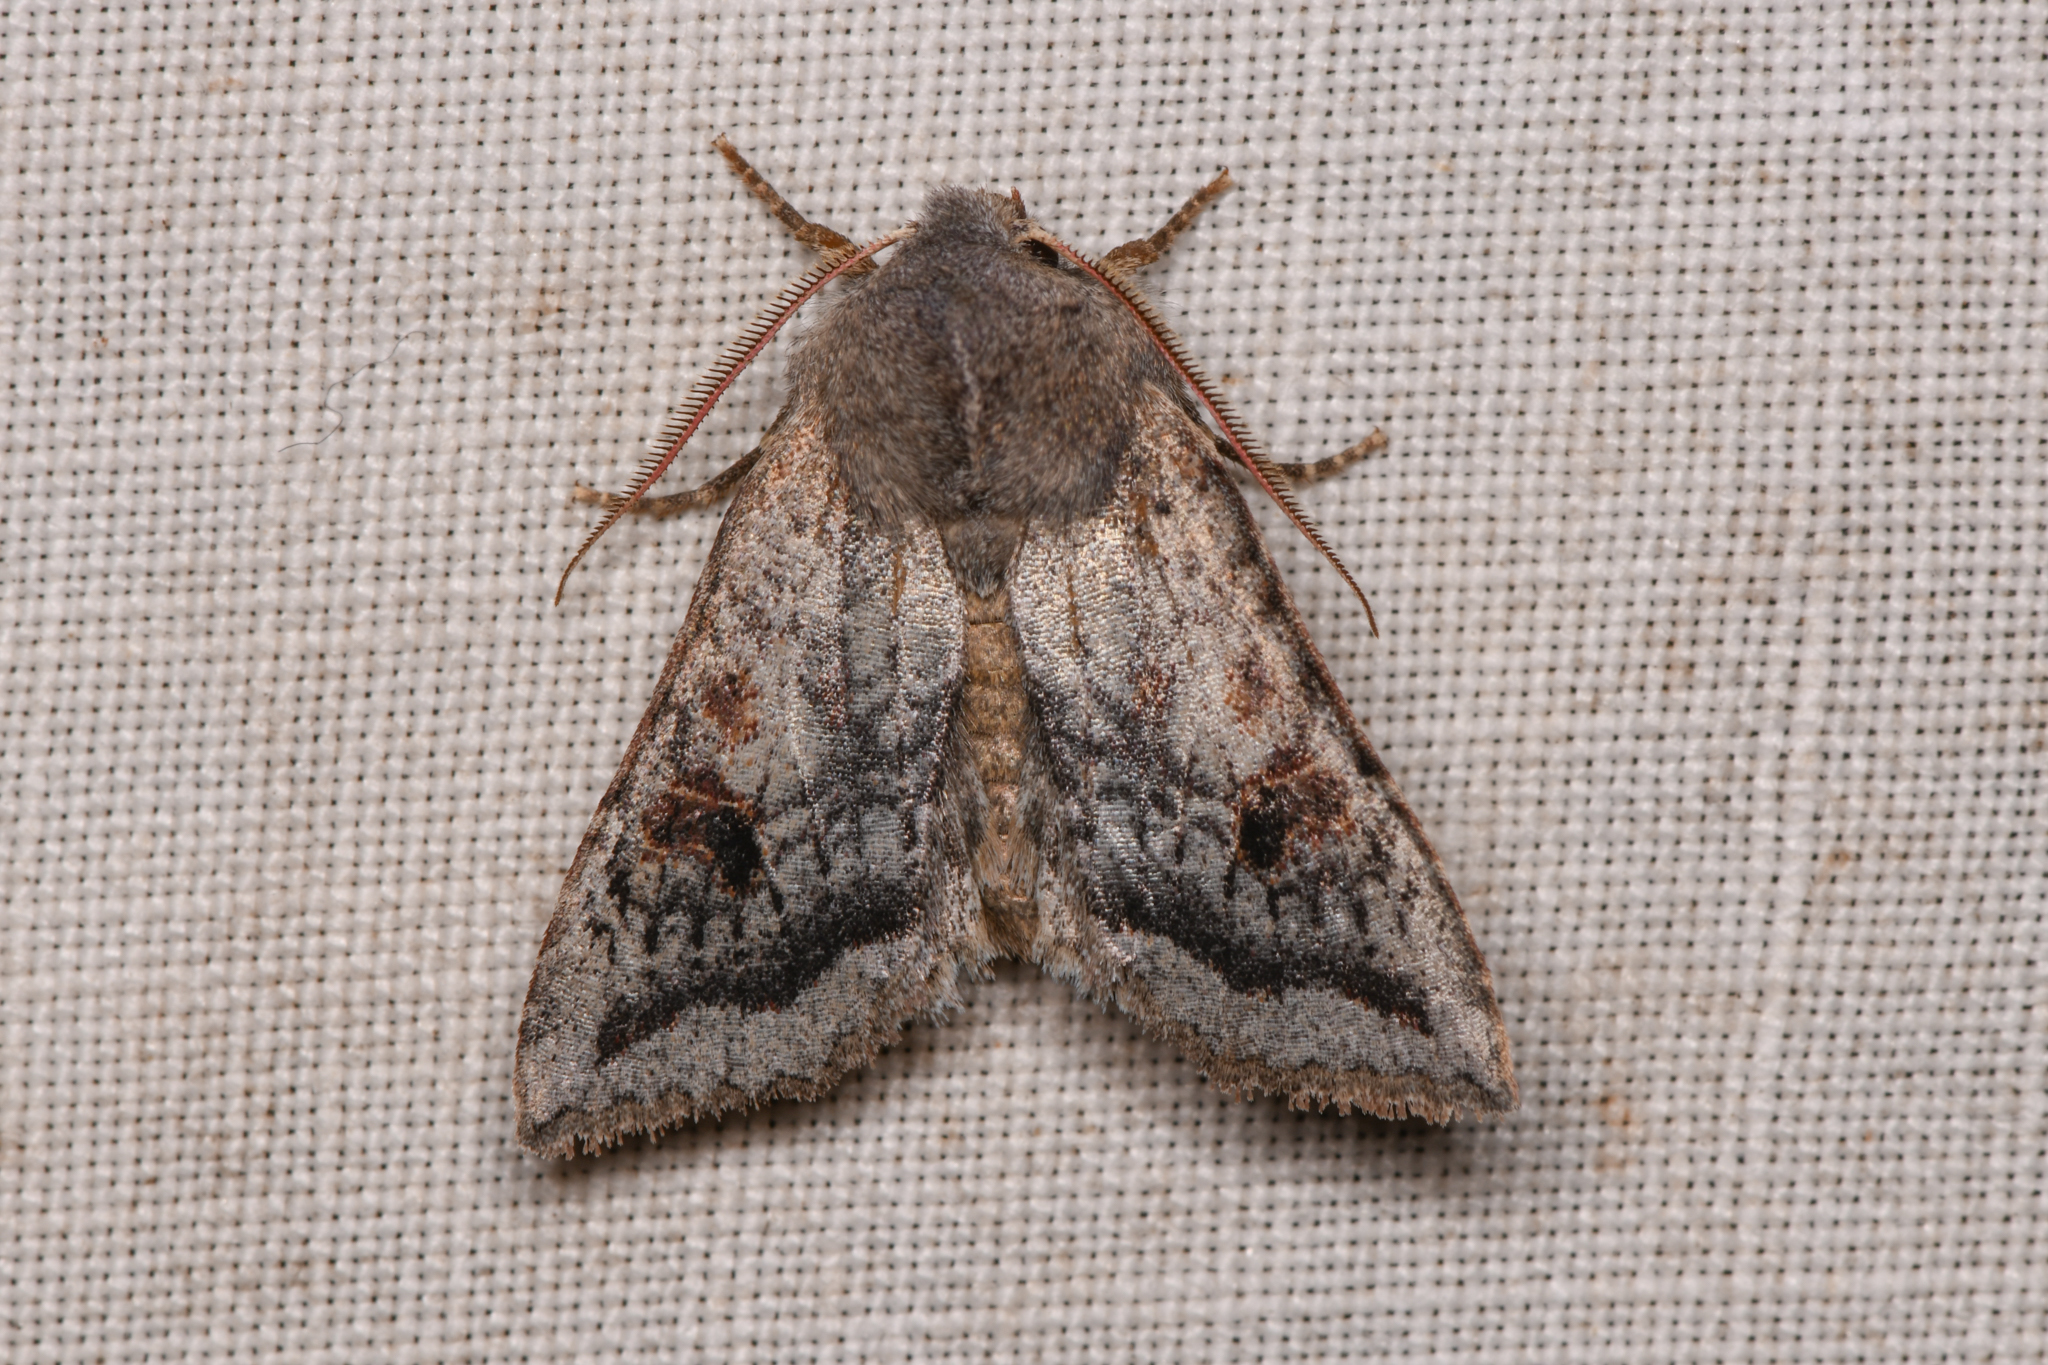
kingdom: Animalia
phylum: Arthropoda
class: Insecta
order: Lepidoptera
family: Noctuidae
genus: Orthosia
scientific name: Orthosia erythrolita
